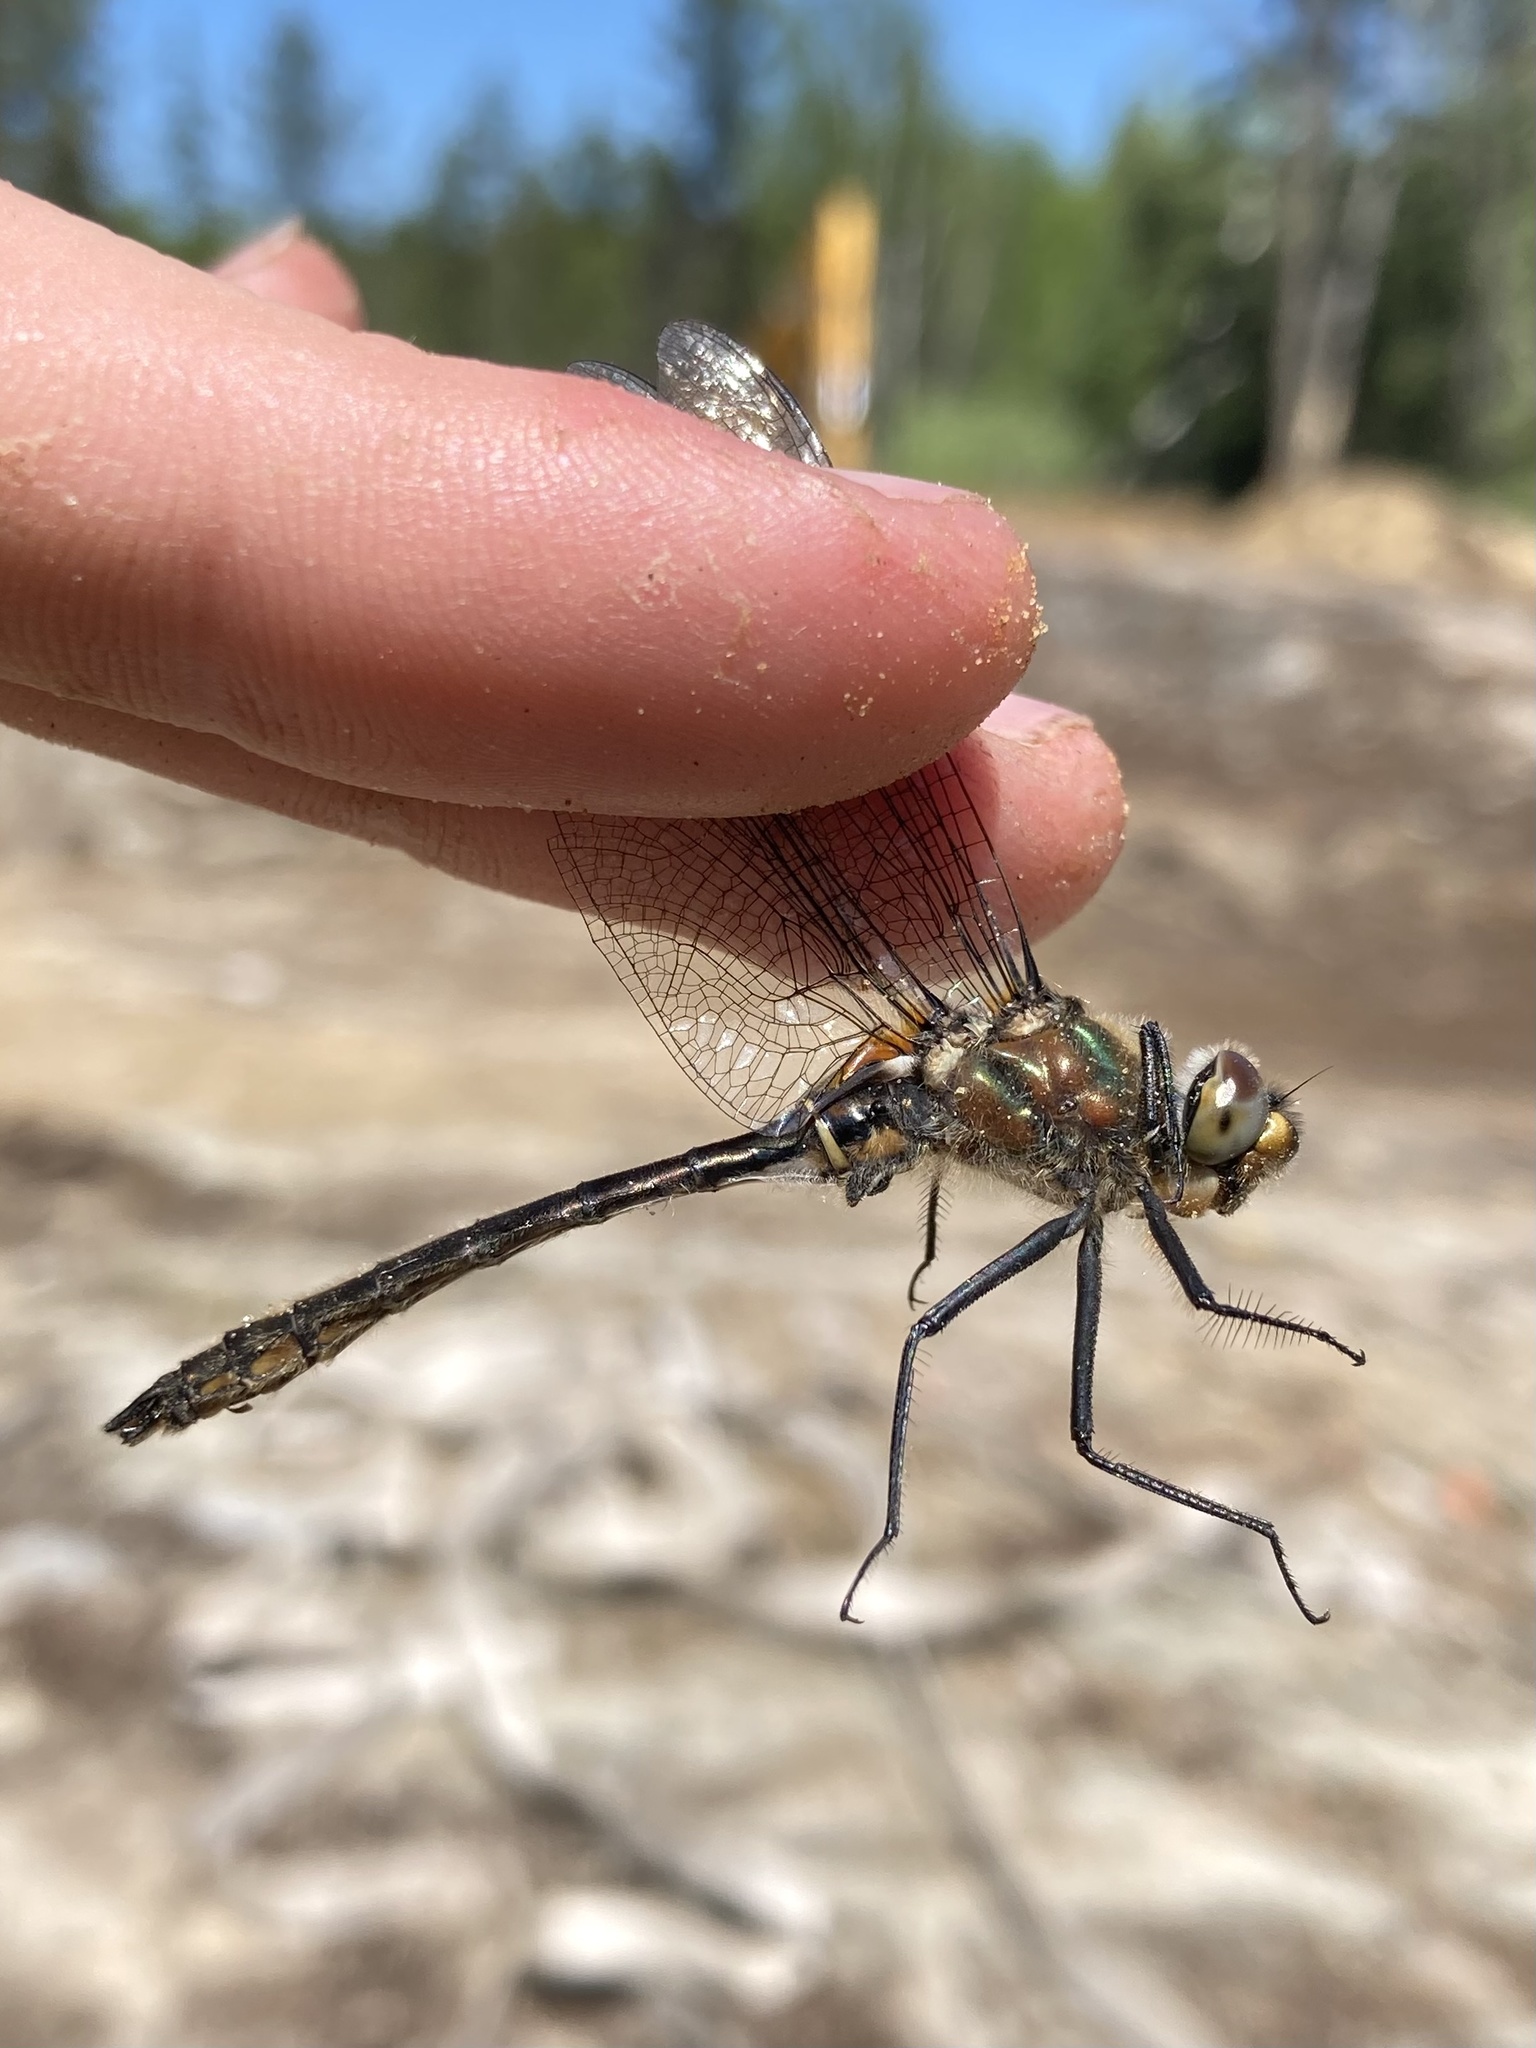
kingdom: Animalia
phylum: Arthropoda
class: Insecta
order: Odonata
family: Corduliidae
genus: Cordulia
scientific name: Cordulia shurtleffii
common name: American emerald
